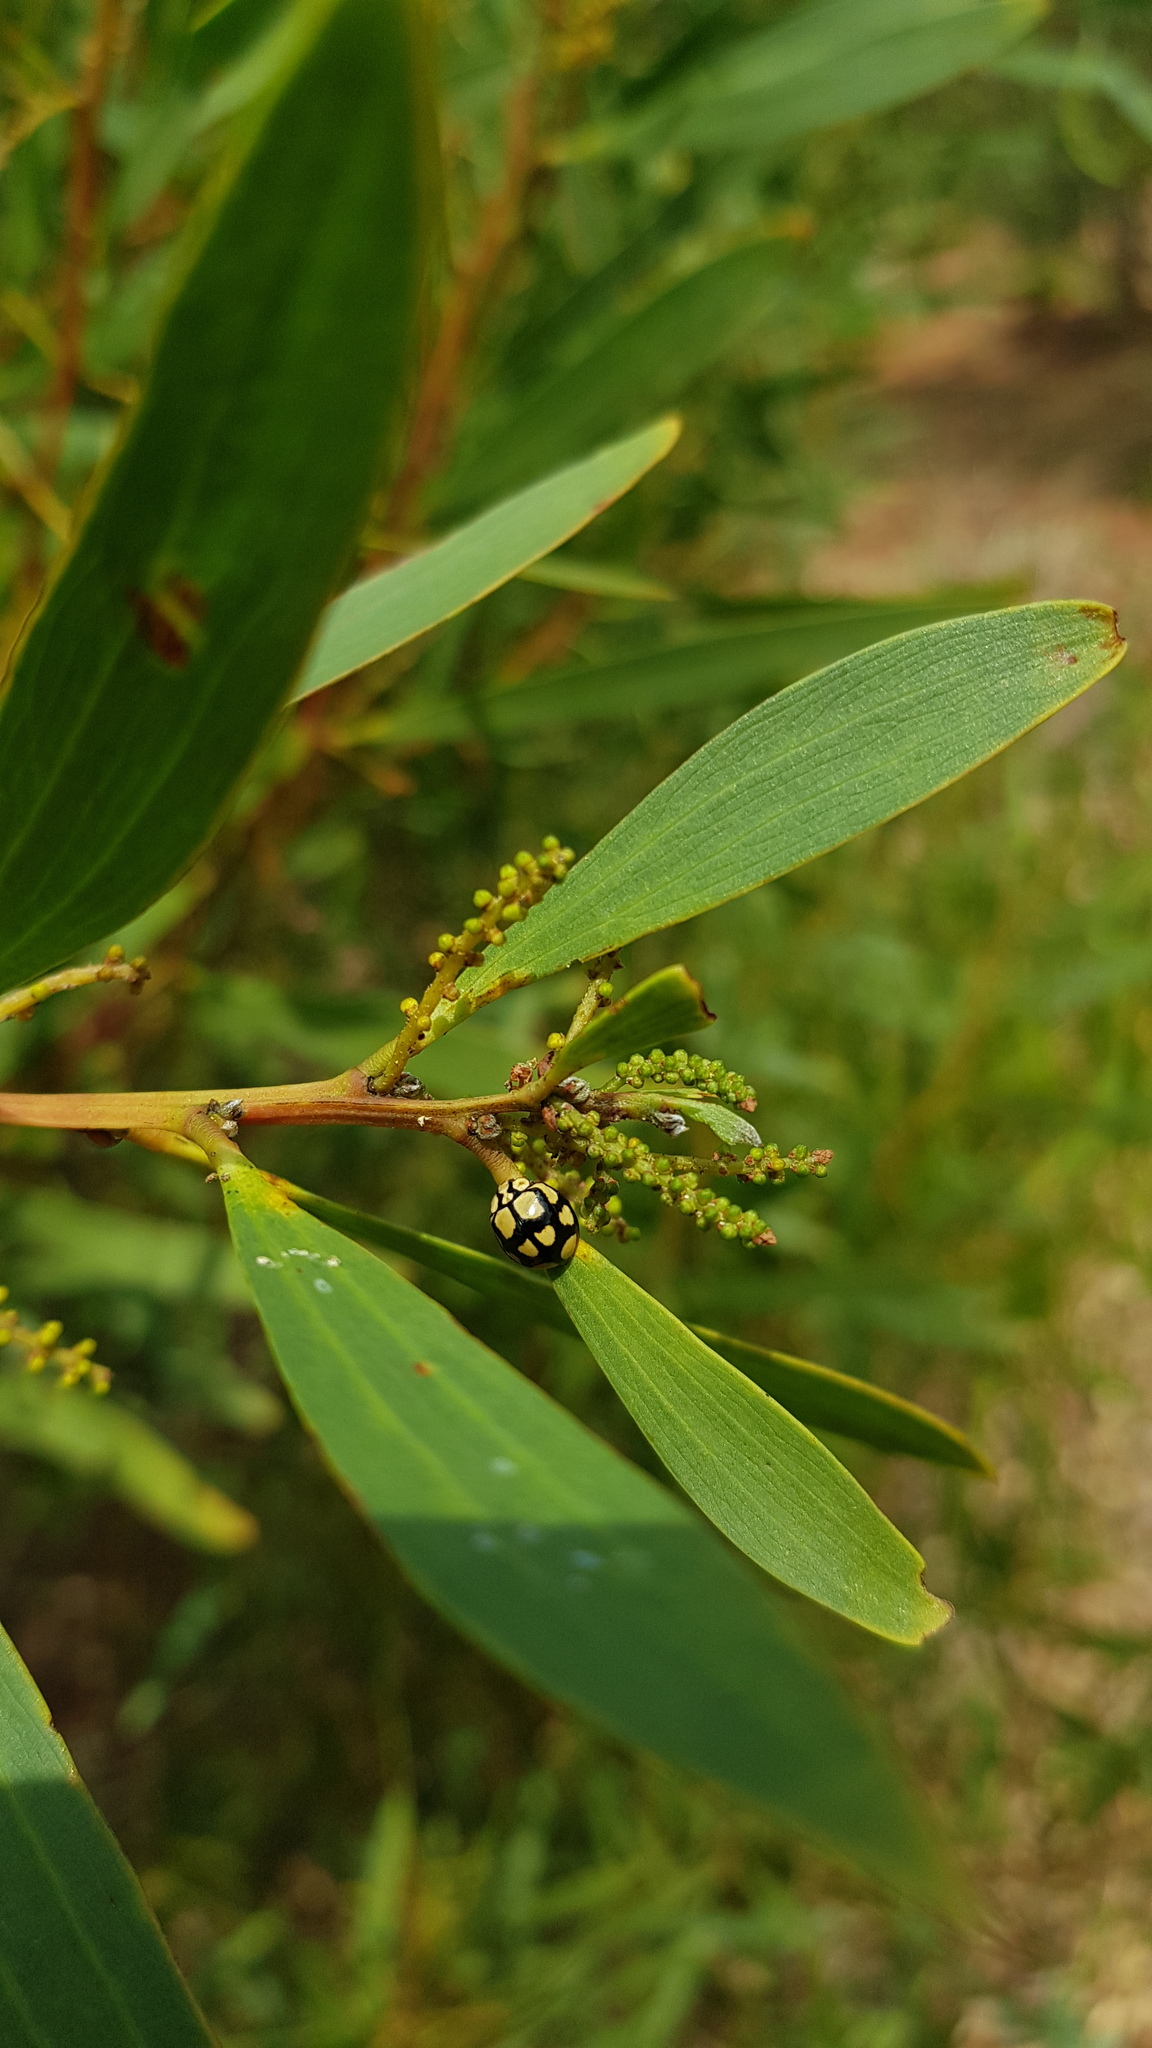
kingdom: Animalia
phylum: Arthropoda
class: Insecta
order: Coleoptera
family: Coccinellidae
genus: Harmonia
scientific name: Harmonia
